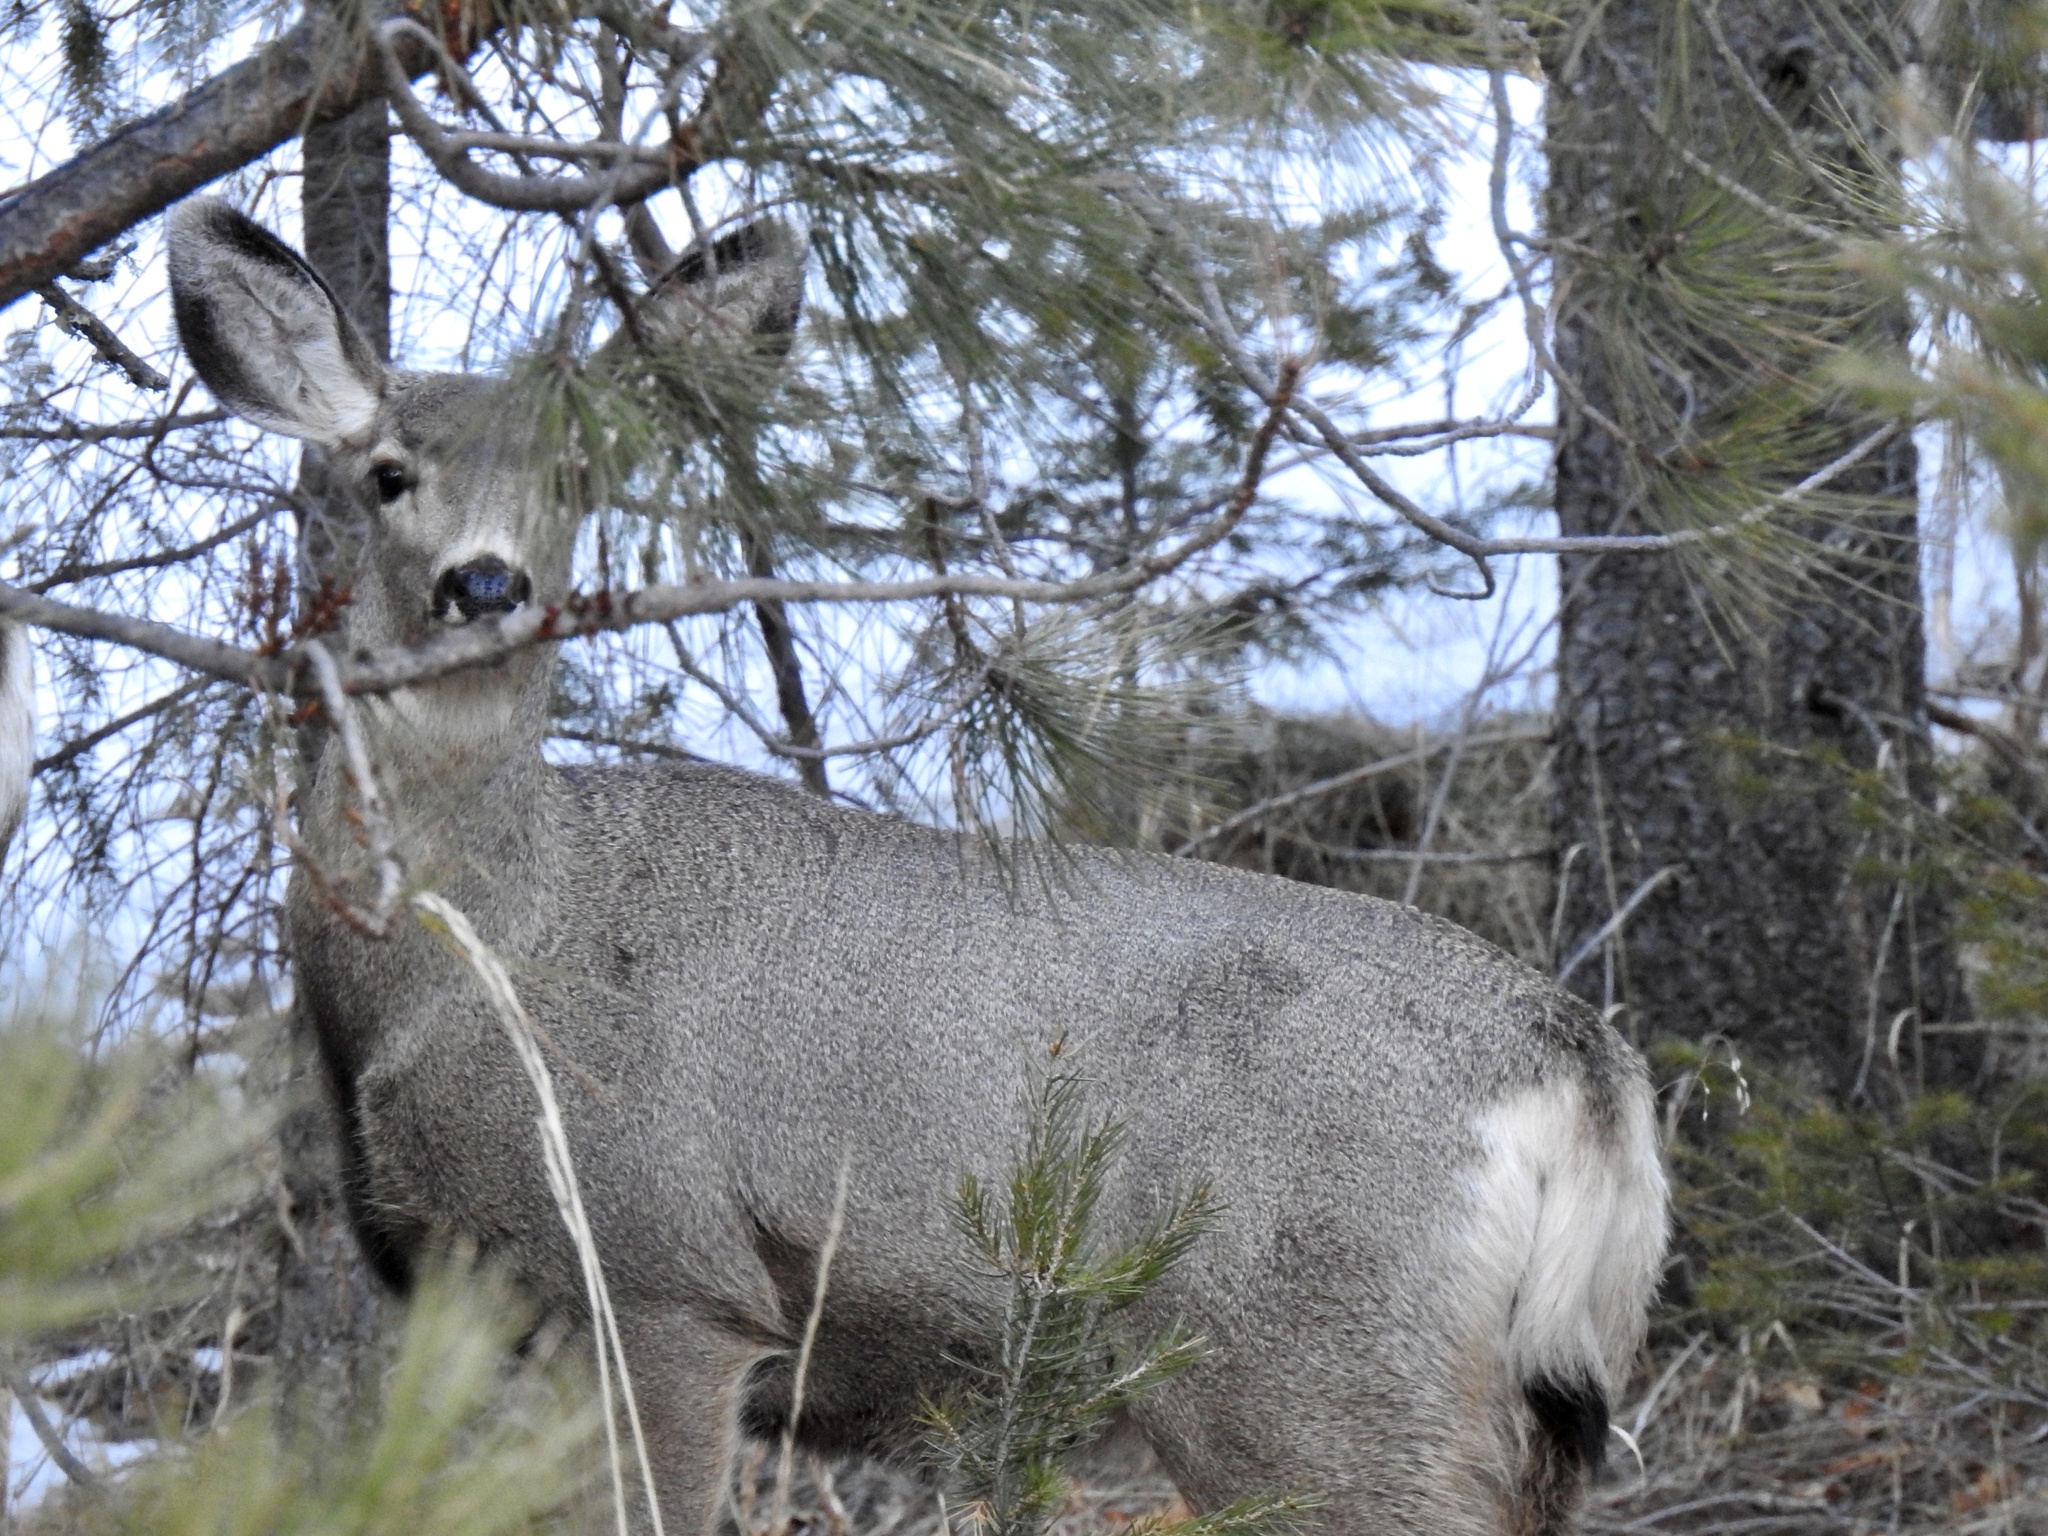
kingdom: Animalia
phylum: Chordata
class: Mammalia
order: Artiodactyla
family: Cervidae
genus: Odocoileus
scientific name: Odocoileus hemionus
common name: Mule deer
